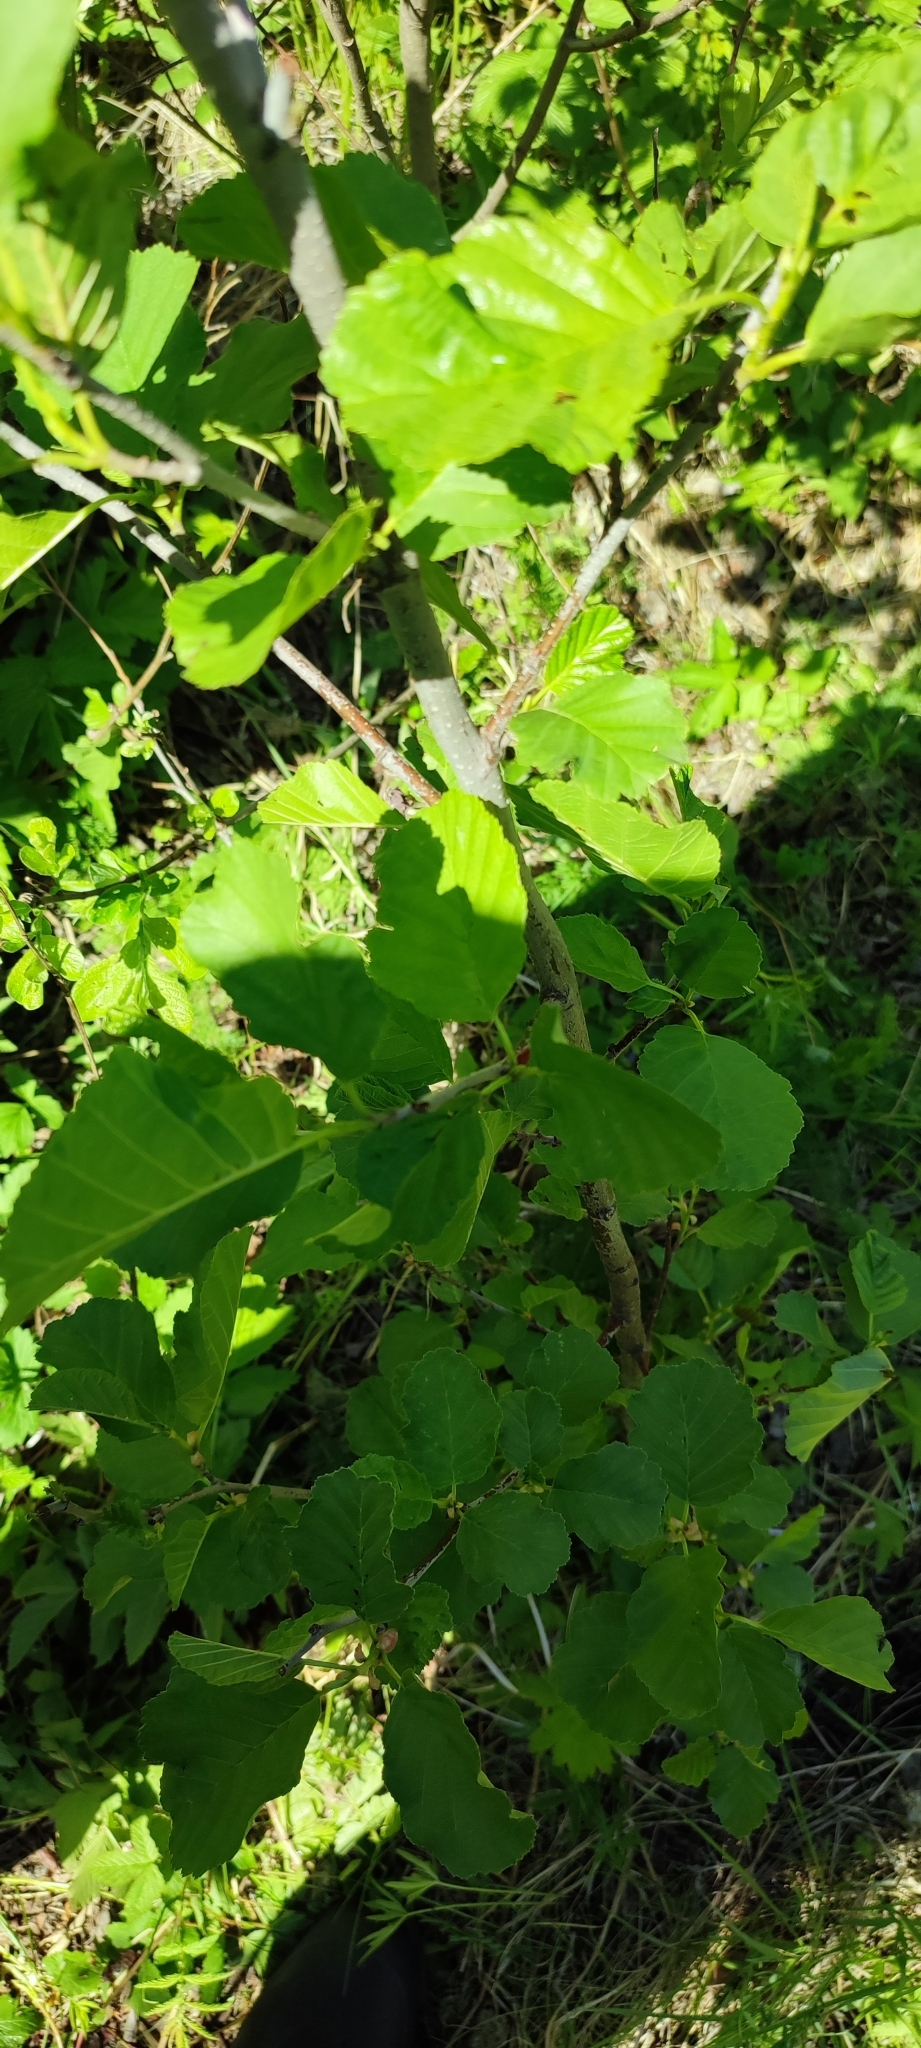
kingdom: Plantae
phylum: Tracheophyta
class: Magnoliopsida
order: Fagales
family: Betulaceae
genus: Alnus
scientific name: Alnus glutinosa
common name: Black alder
